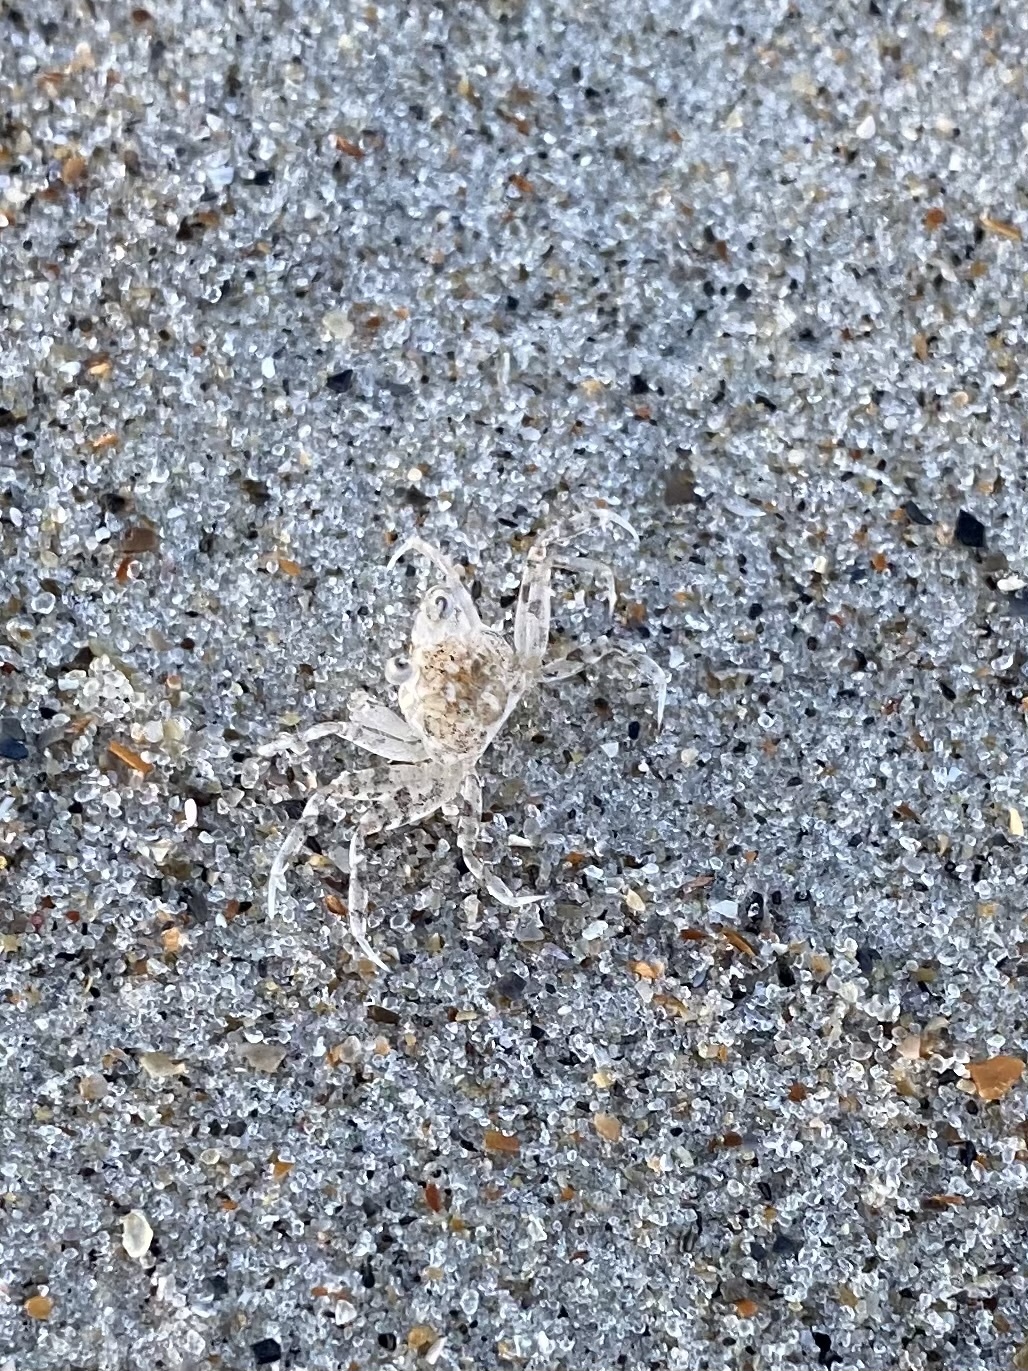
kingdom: Animalia
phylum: Arthropoda
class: Malacostraca
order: Decapoda
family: Ocypodidae
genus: Ocypode
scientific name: Ocypode quadrata
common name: Ghost crab
